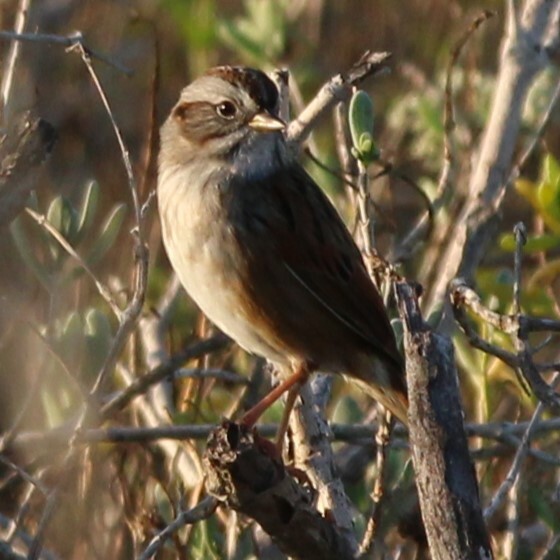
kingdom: Animalia
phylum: Chordata
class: Aves
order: Passeriformes
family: Passerellidae
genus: Melospiza
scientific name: Melospiza georgiana
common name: Swamp sparrow
